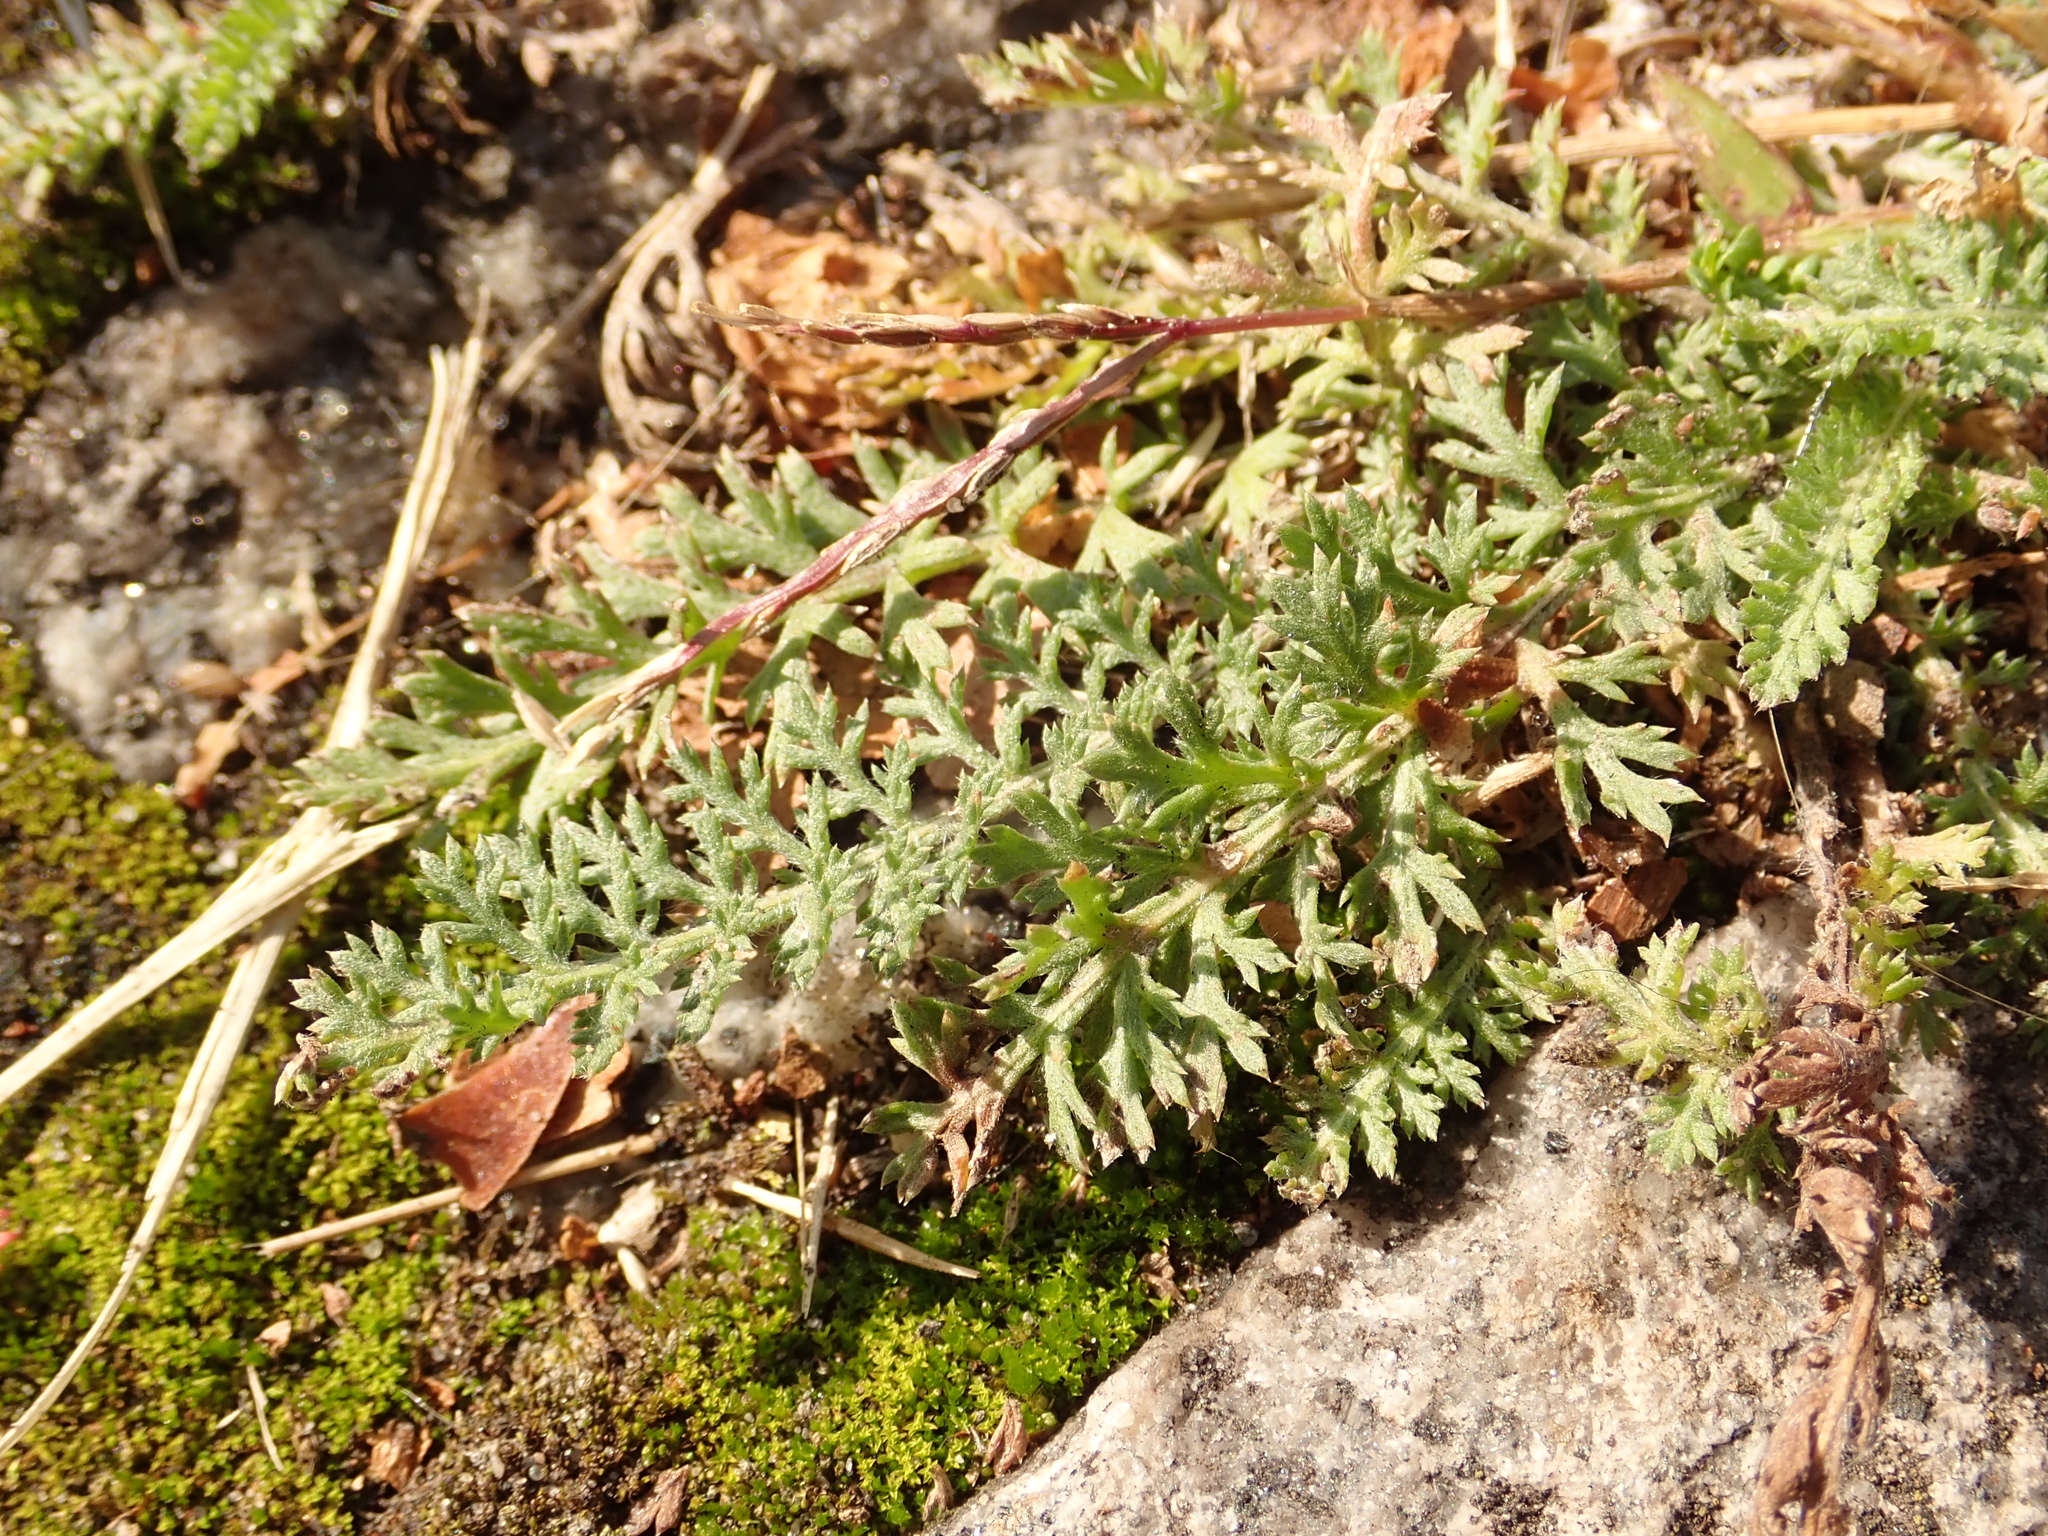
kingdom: Plantae
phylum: Tracheophyta
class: Magnoliopsida
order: Asterales
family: Asteraceae
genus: Achillea
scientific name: Achillea millefolium
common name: Yarrow
